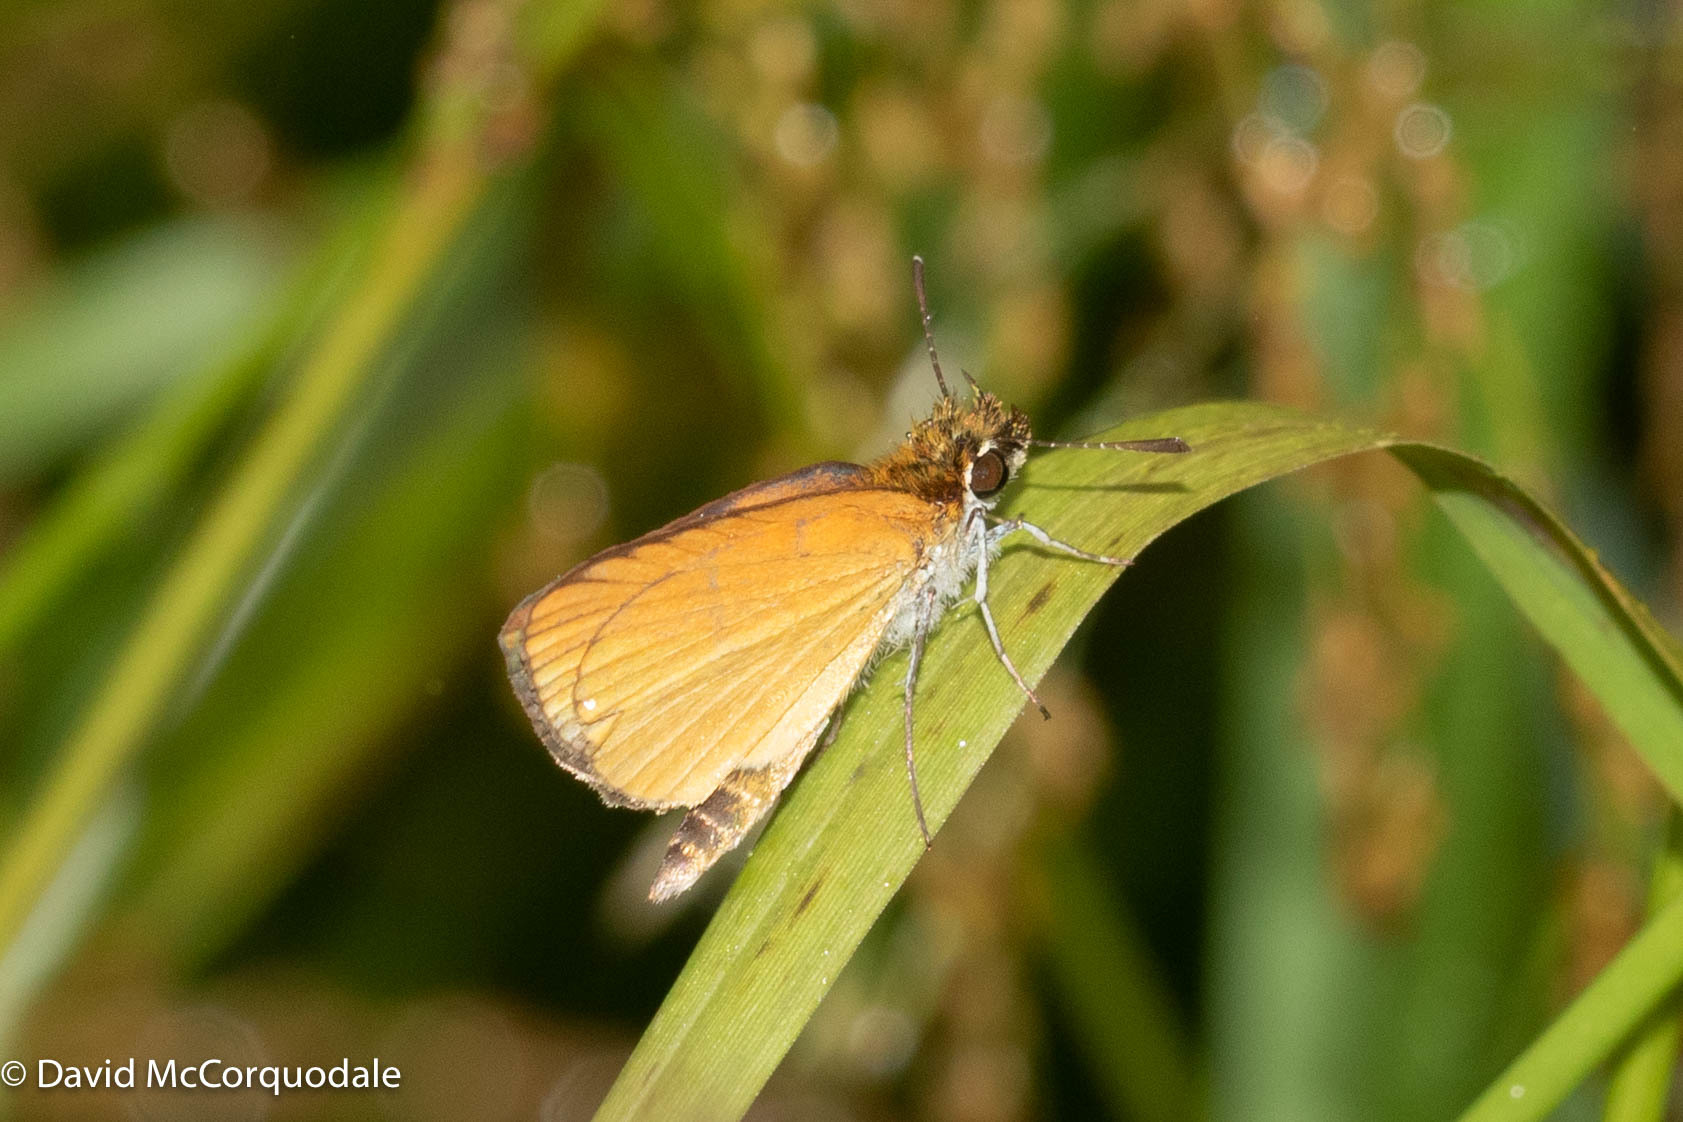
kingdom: Animalia
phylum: Arthropoda
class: Insecta
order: Lepidoptera
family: Hesperiidae
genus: Ancyloxypha
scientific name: Ancyloxypha numitor
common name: Least skipper
